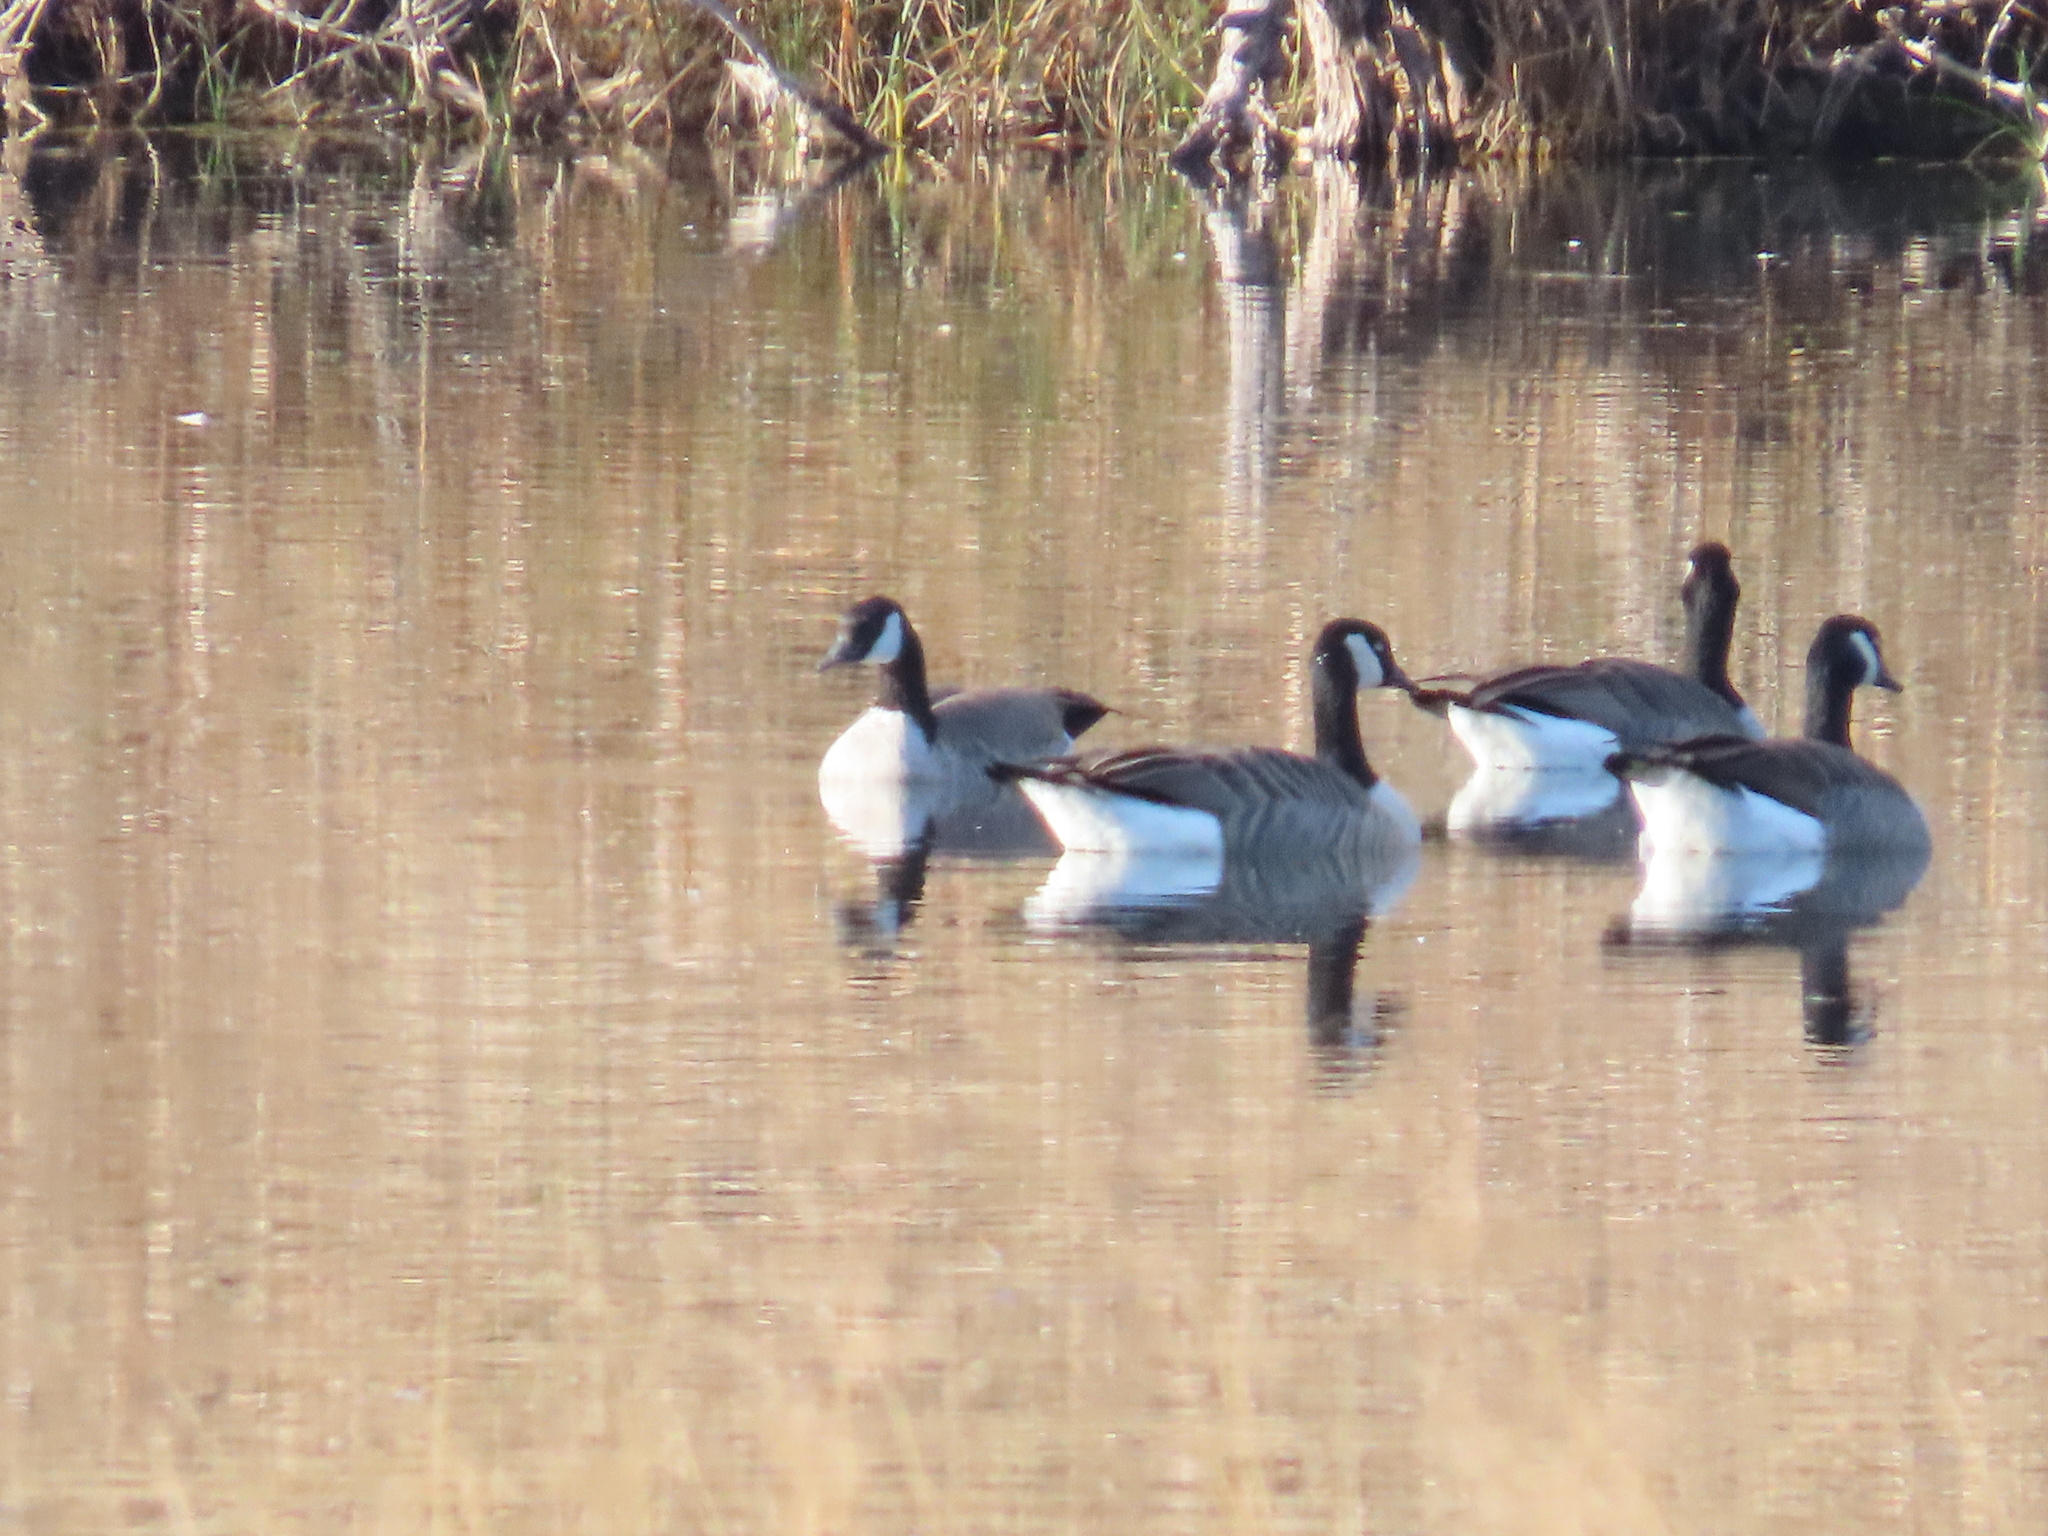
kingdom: Animalia
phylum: Chordata
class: Aves
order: Anseriformes
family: Anatidae
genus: Branta
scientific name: Branta canadensis
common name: Canada goose
